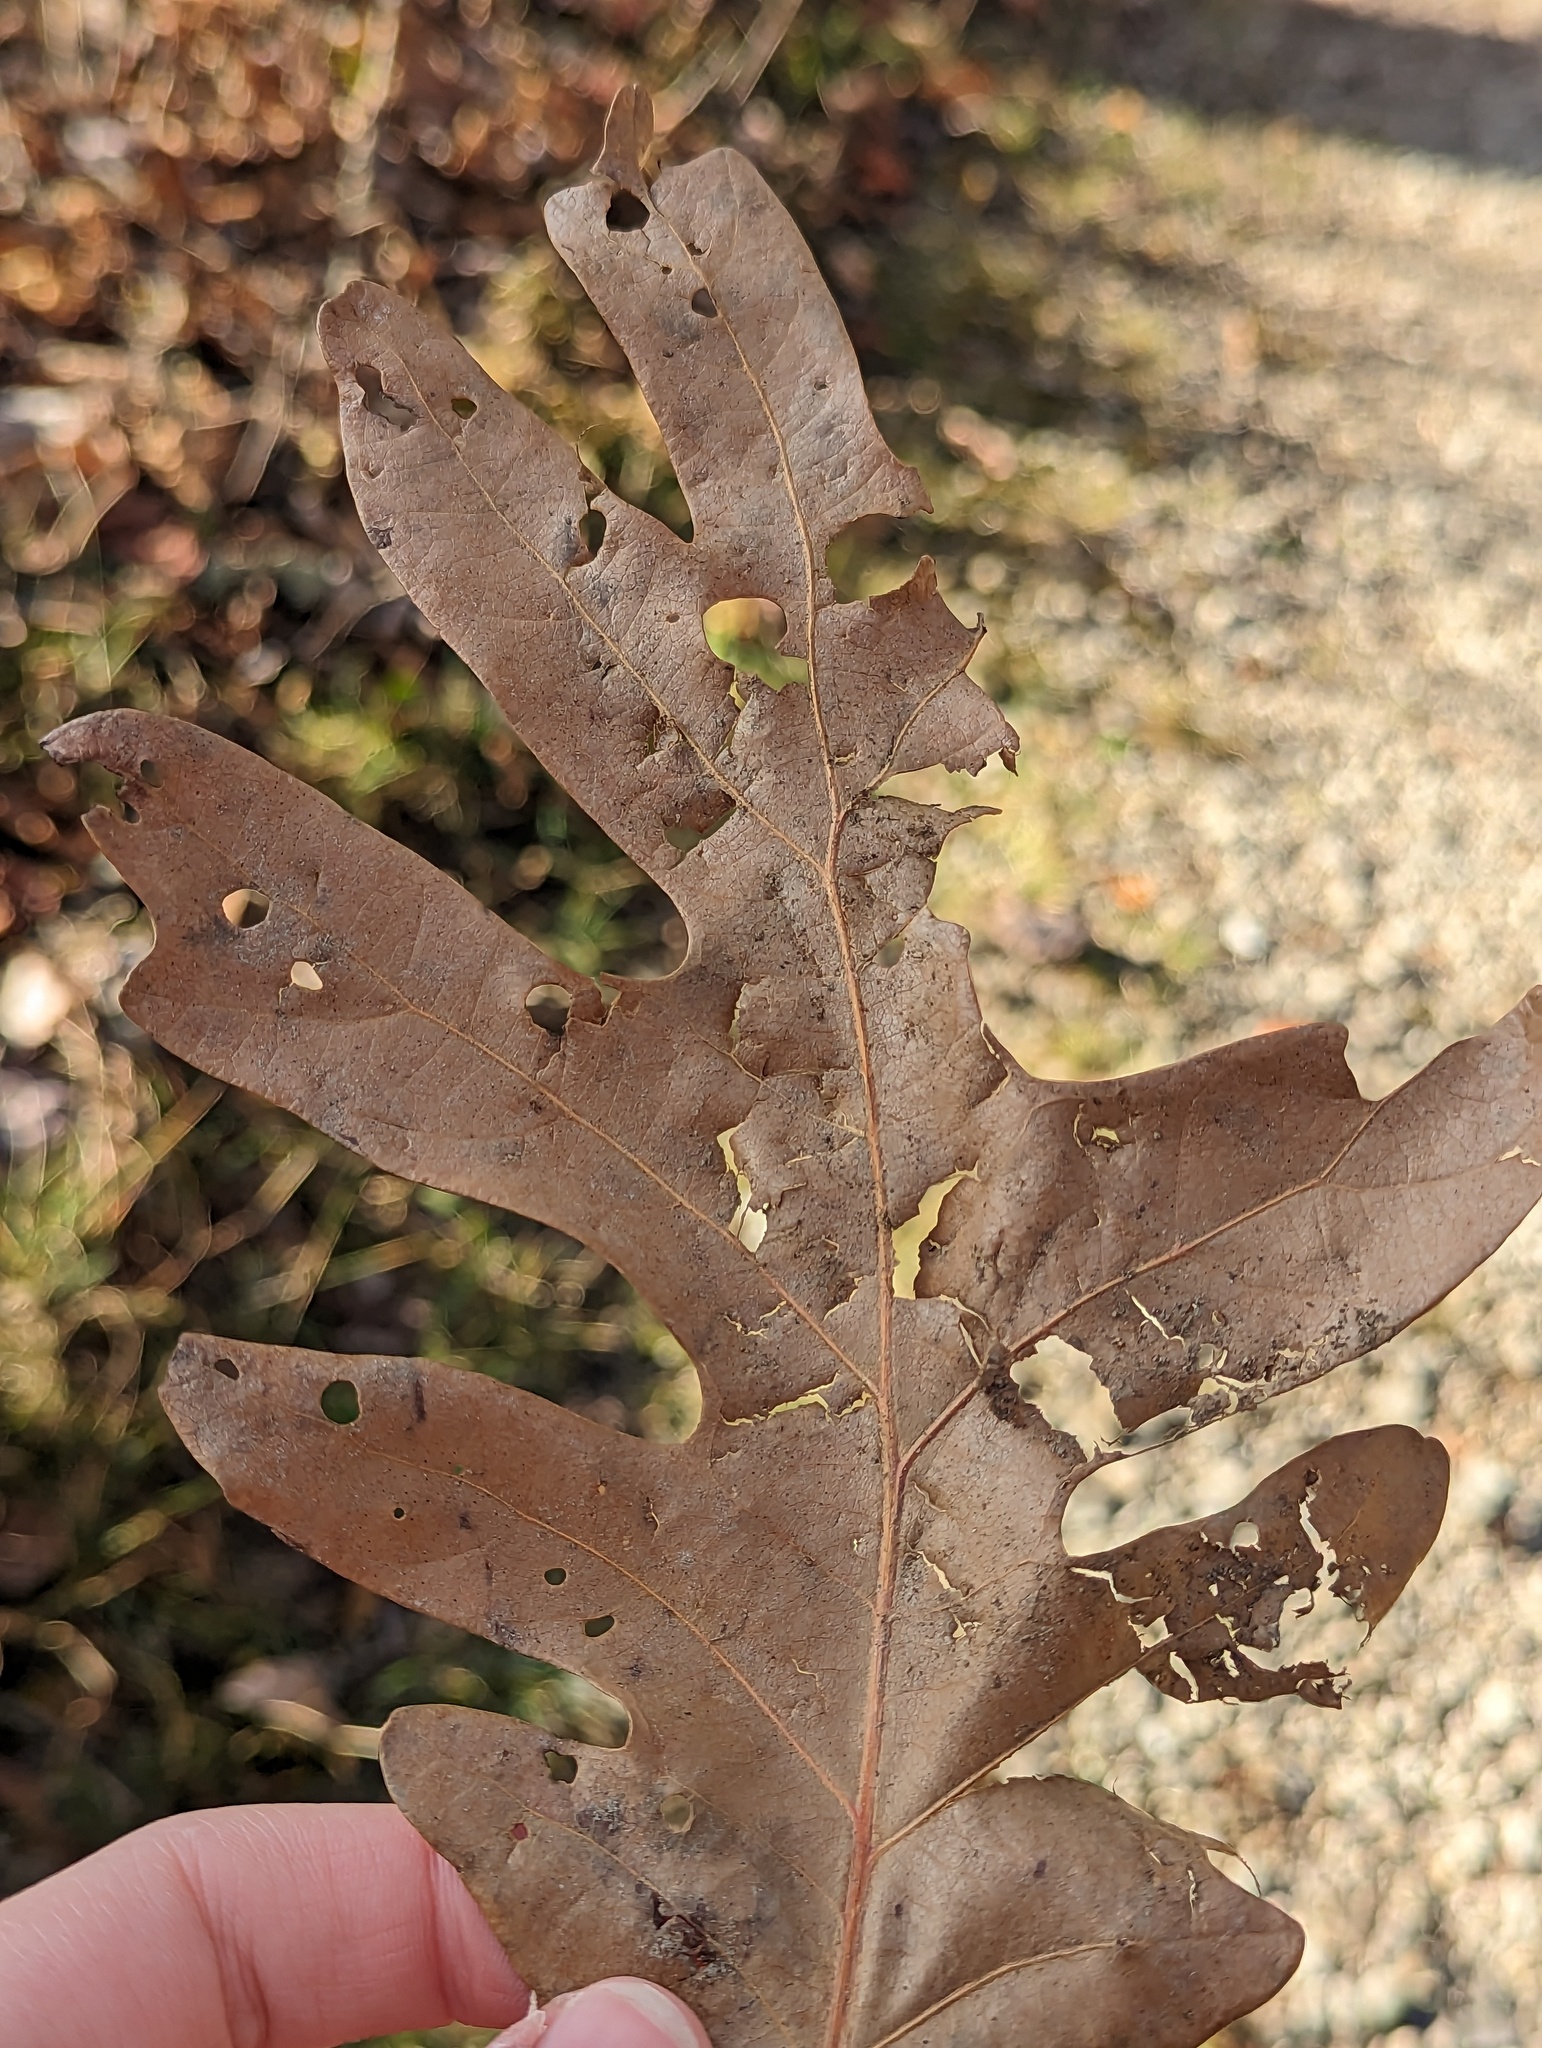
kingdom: Plantae
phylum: Tracheophyta
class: Magnoliopsida
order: Fagales
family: Fagaceae
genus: Quercus
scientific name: Quercus alba
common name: White oak
